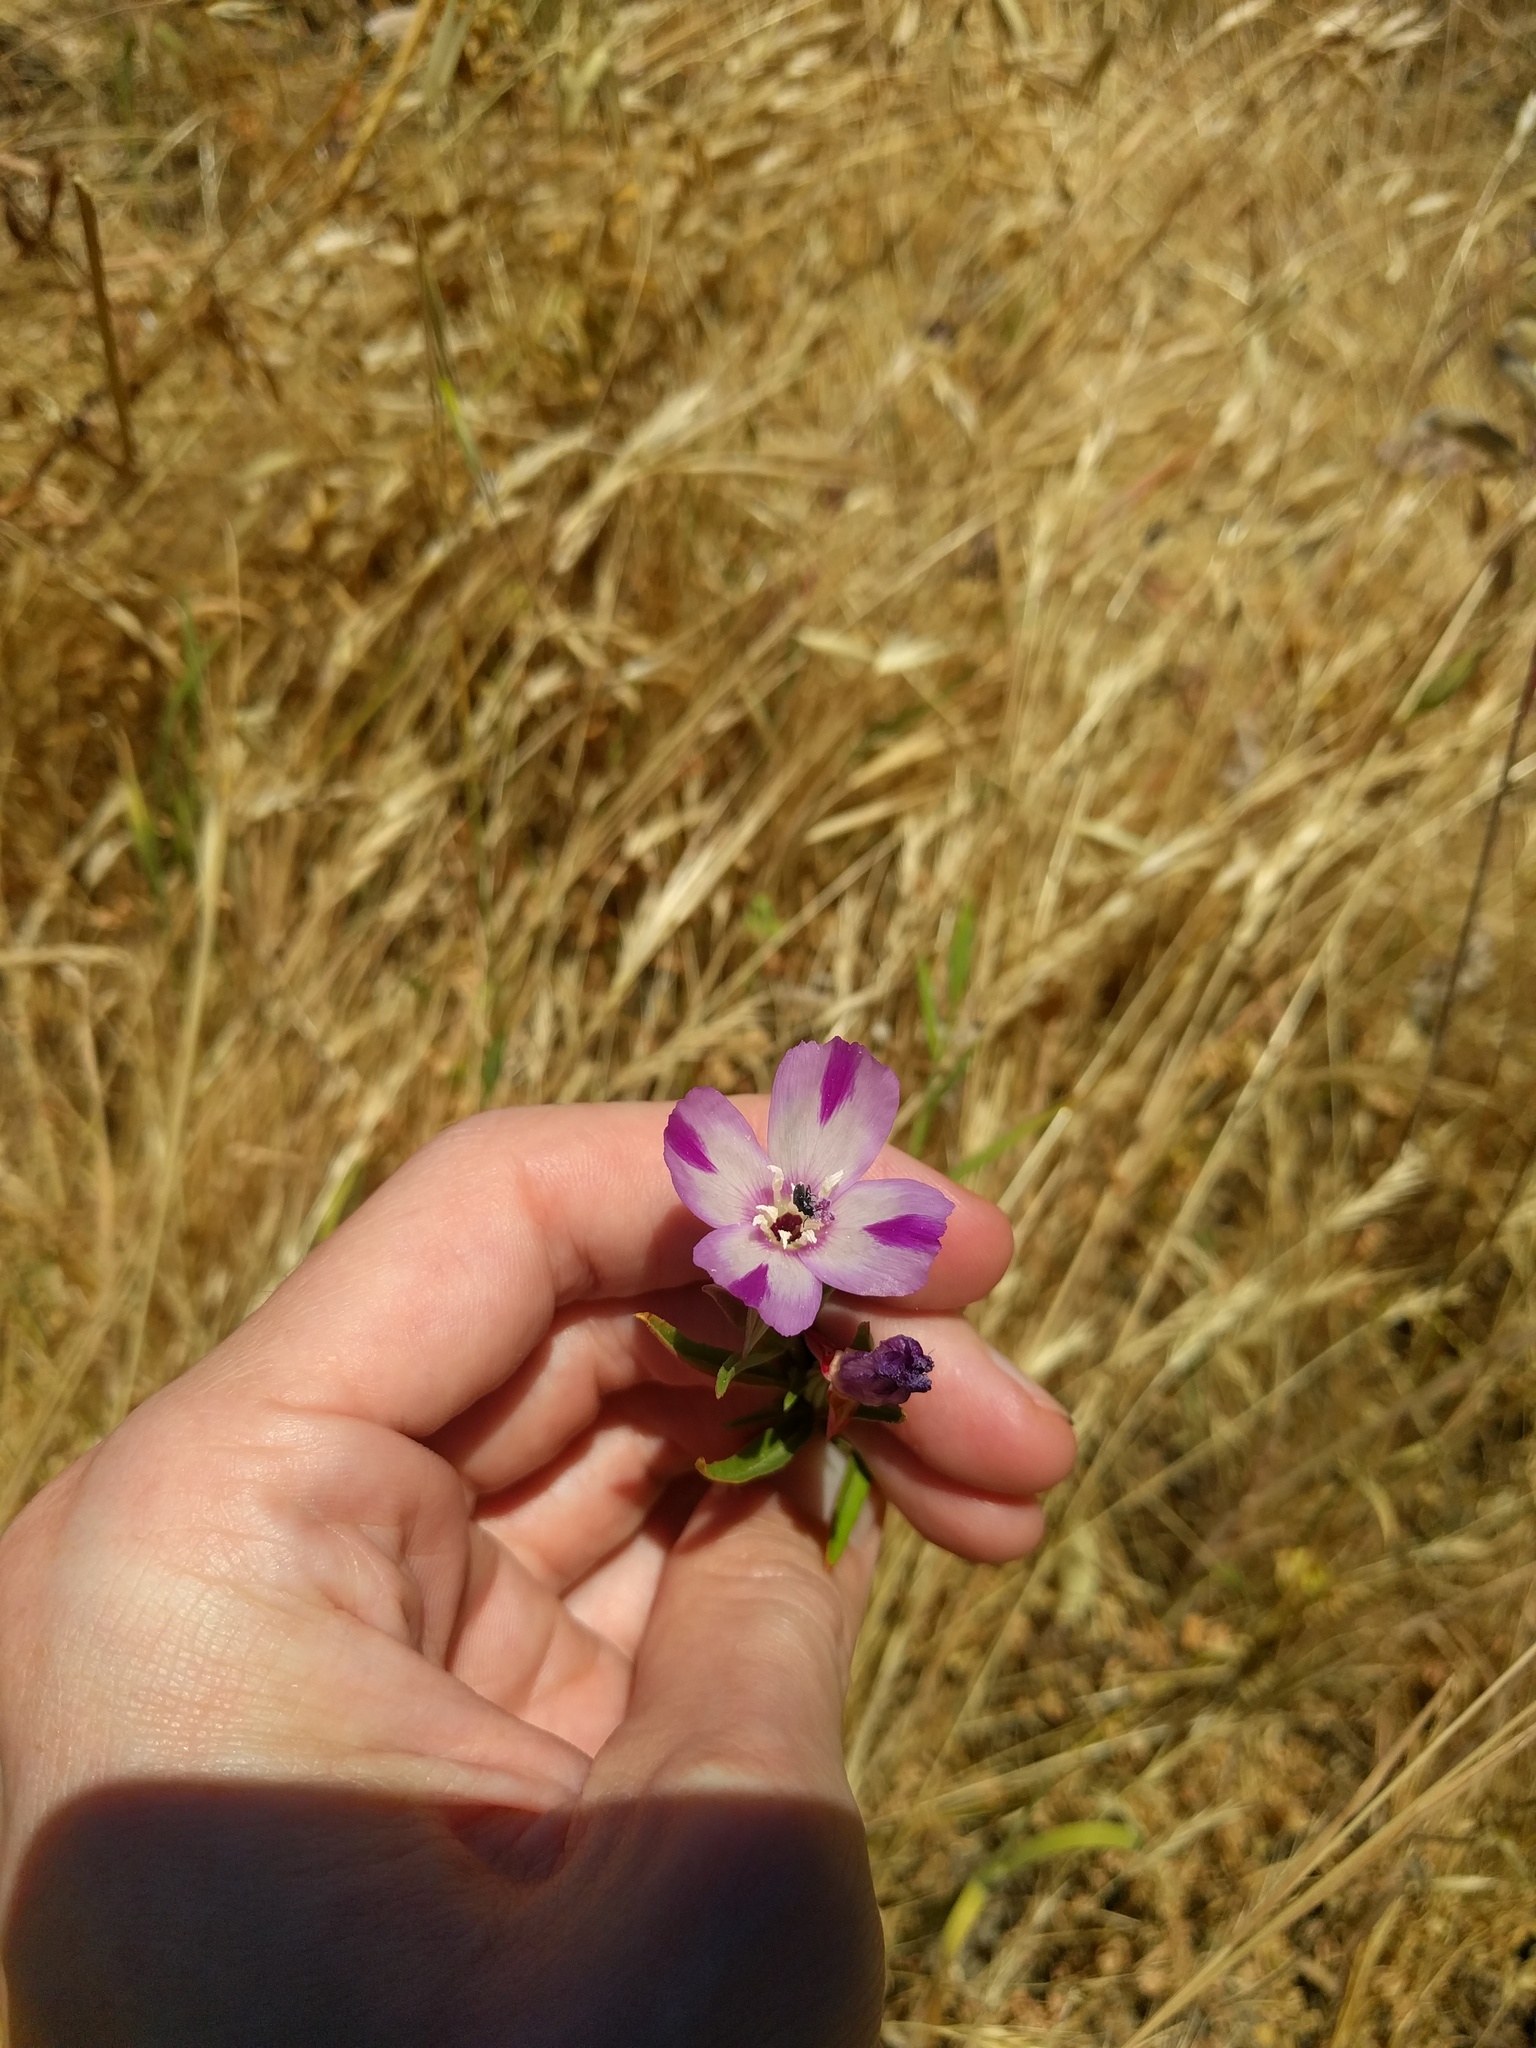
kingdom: Plantae
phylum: Tracheophyta
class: Magnoliopsida
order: Myrtales
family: Onagraceae
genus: Clarkia
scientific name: Clarkia purpurea
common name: Purple clarkia
